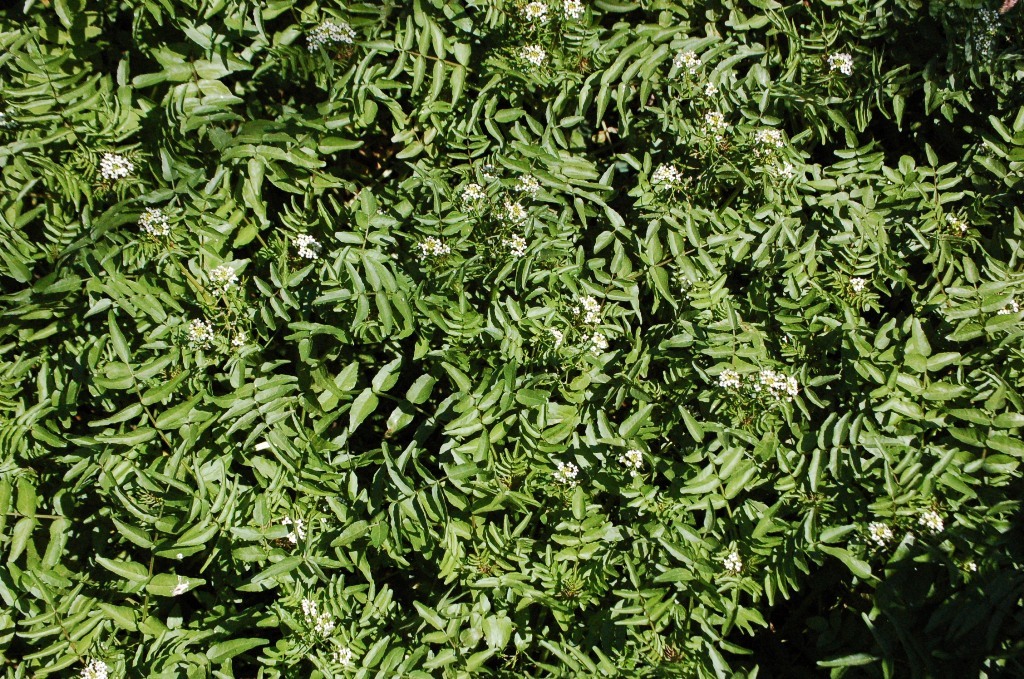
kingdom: Plantae
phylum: Tracheophyta
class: Magnoliopsida
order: Apiales
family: Apiaceae
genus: Berula
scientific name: Berula erecta
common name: Lesser water-parsnip
